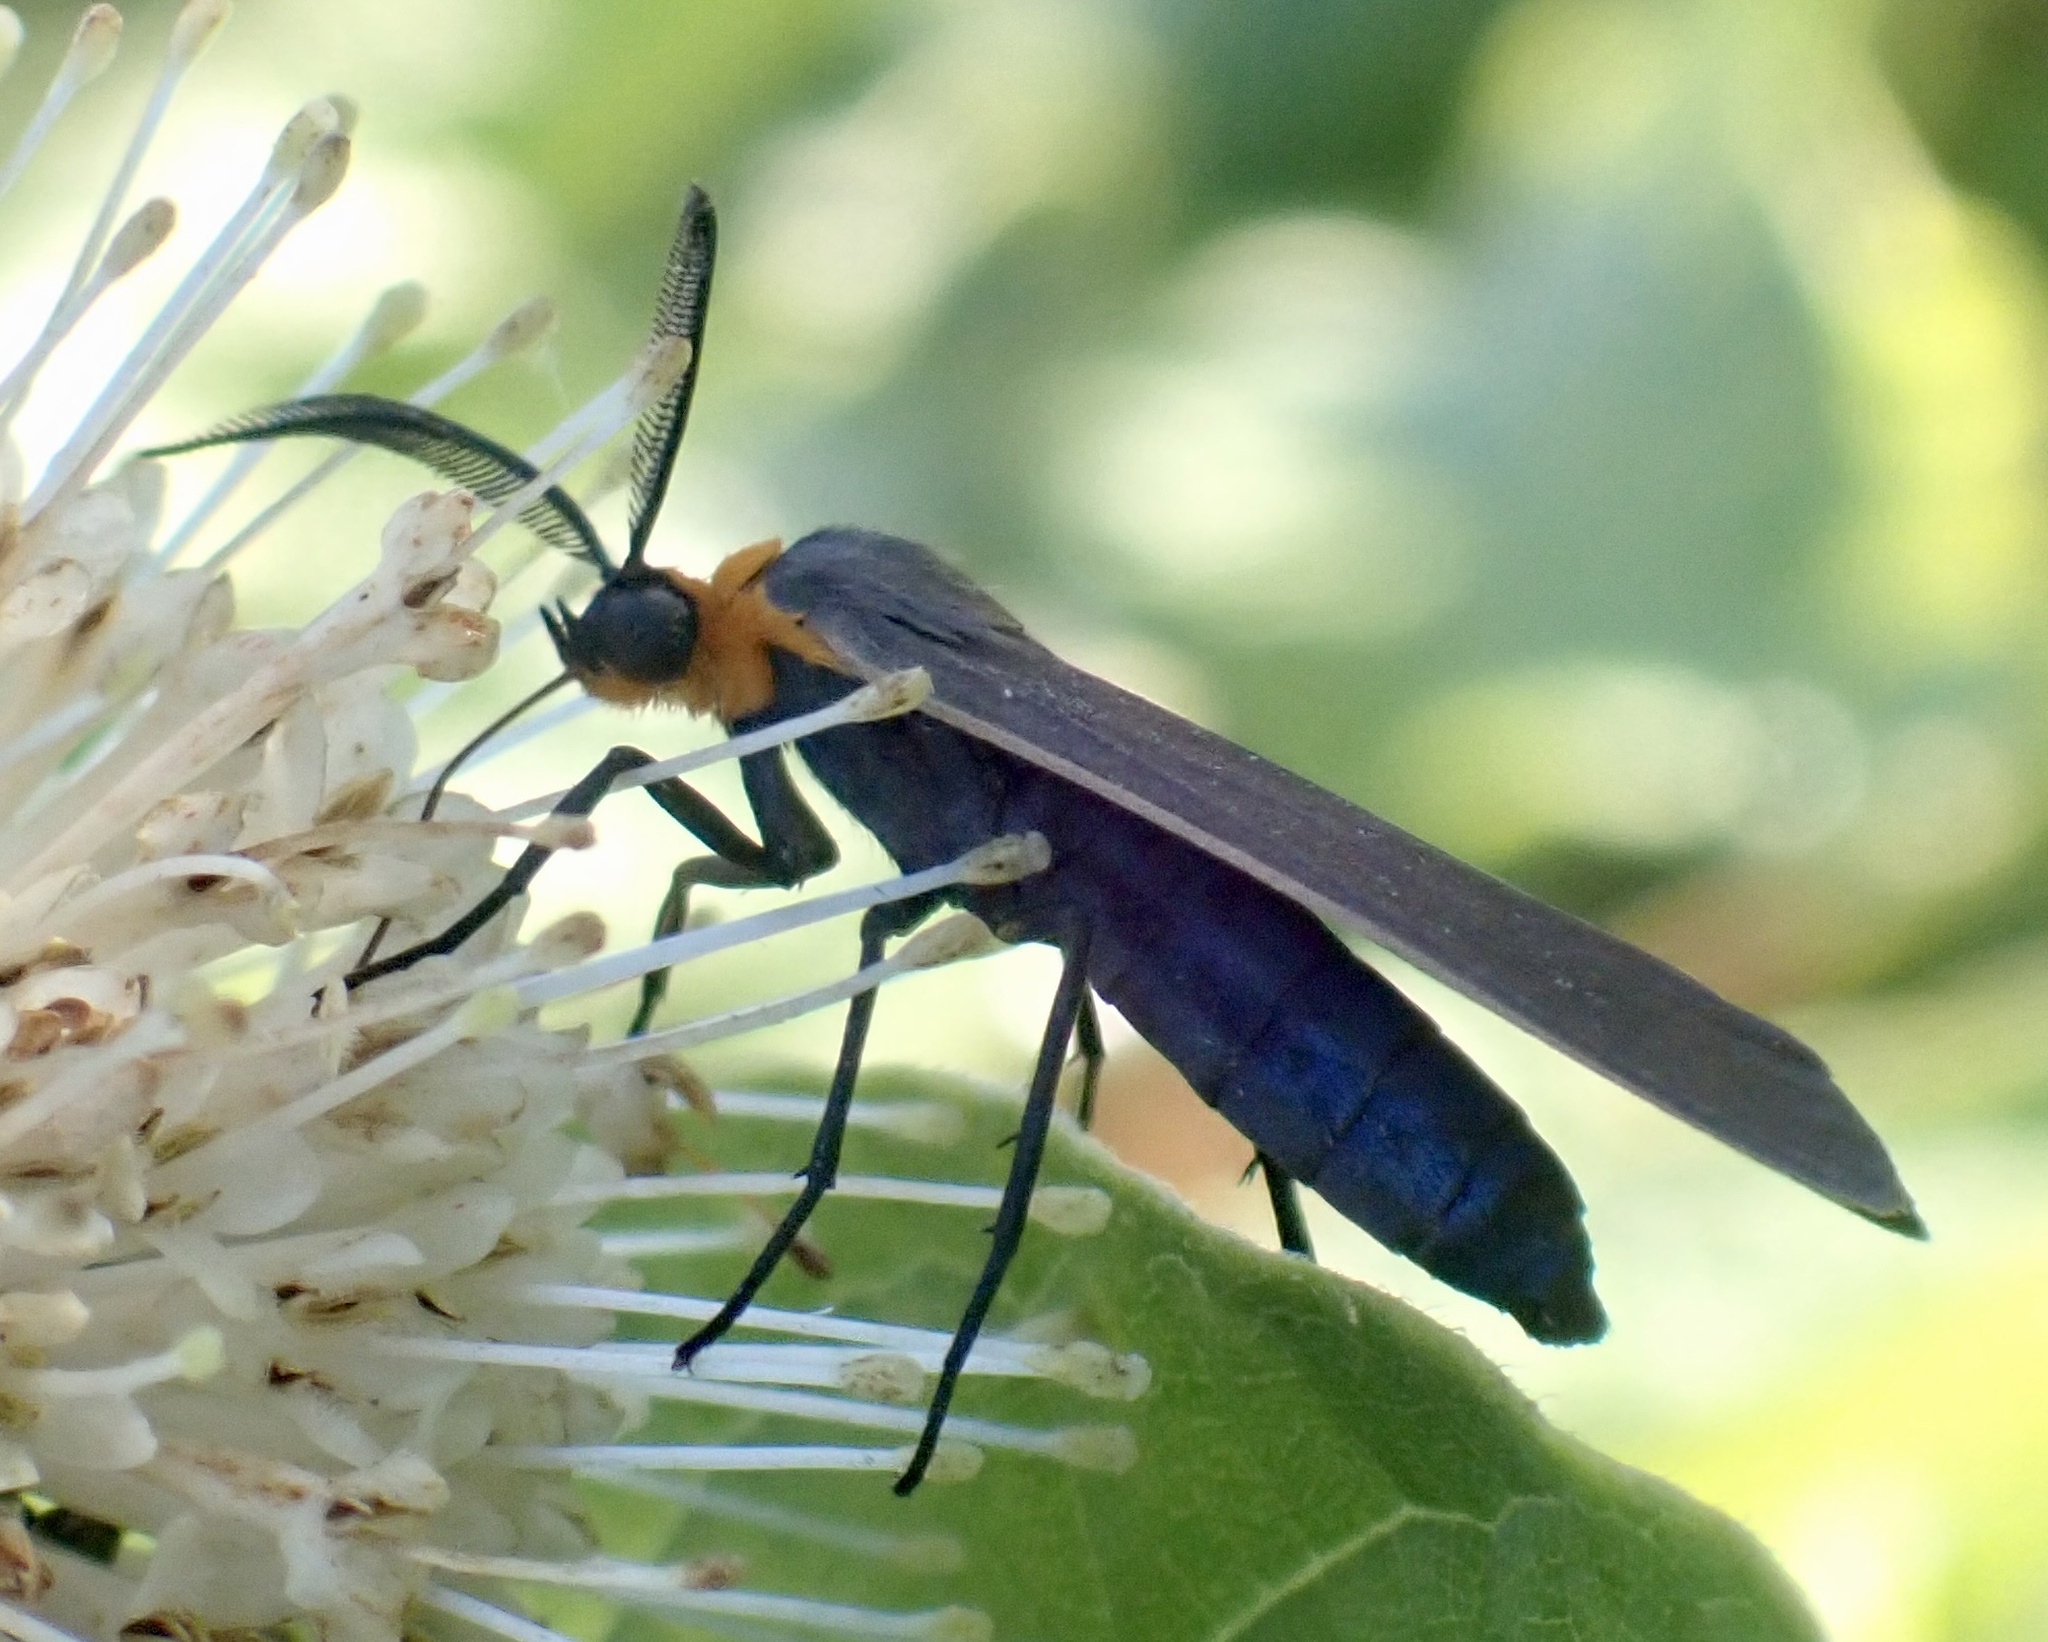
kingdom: Animalia
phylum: Arthropoda
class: Insecta
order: Lepidoptera
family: Erebidae
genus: Cisseps
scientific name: Cisseps fulvicollis
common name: Yellow-collared scape moth
